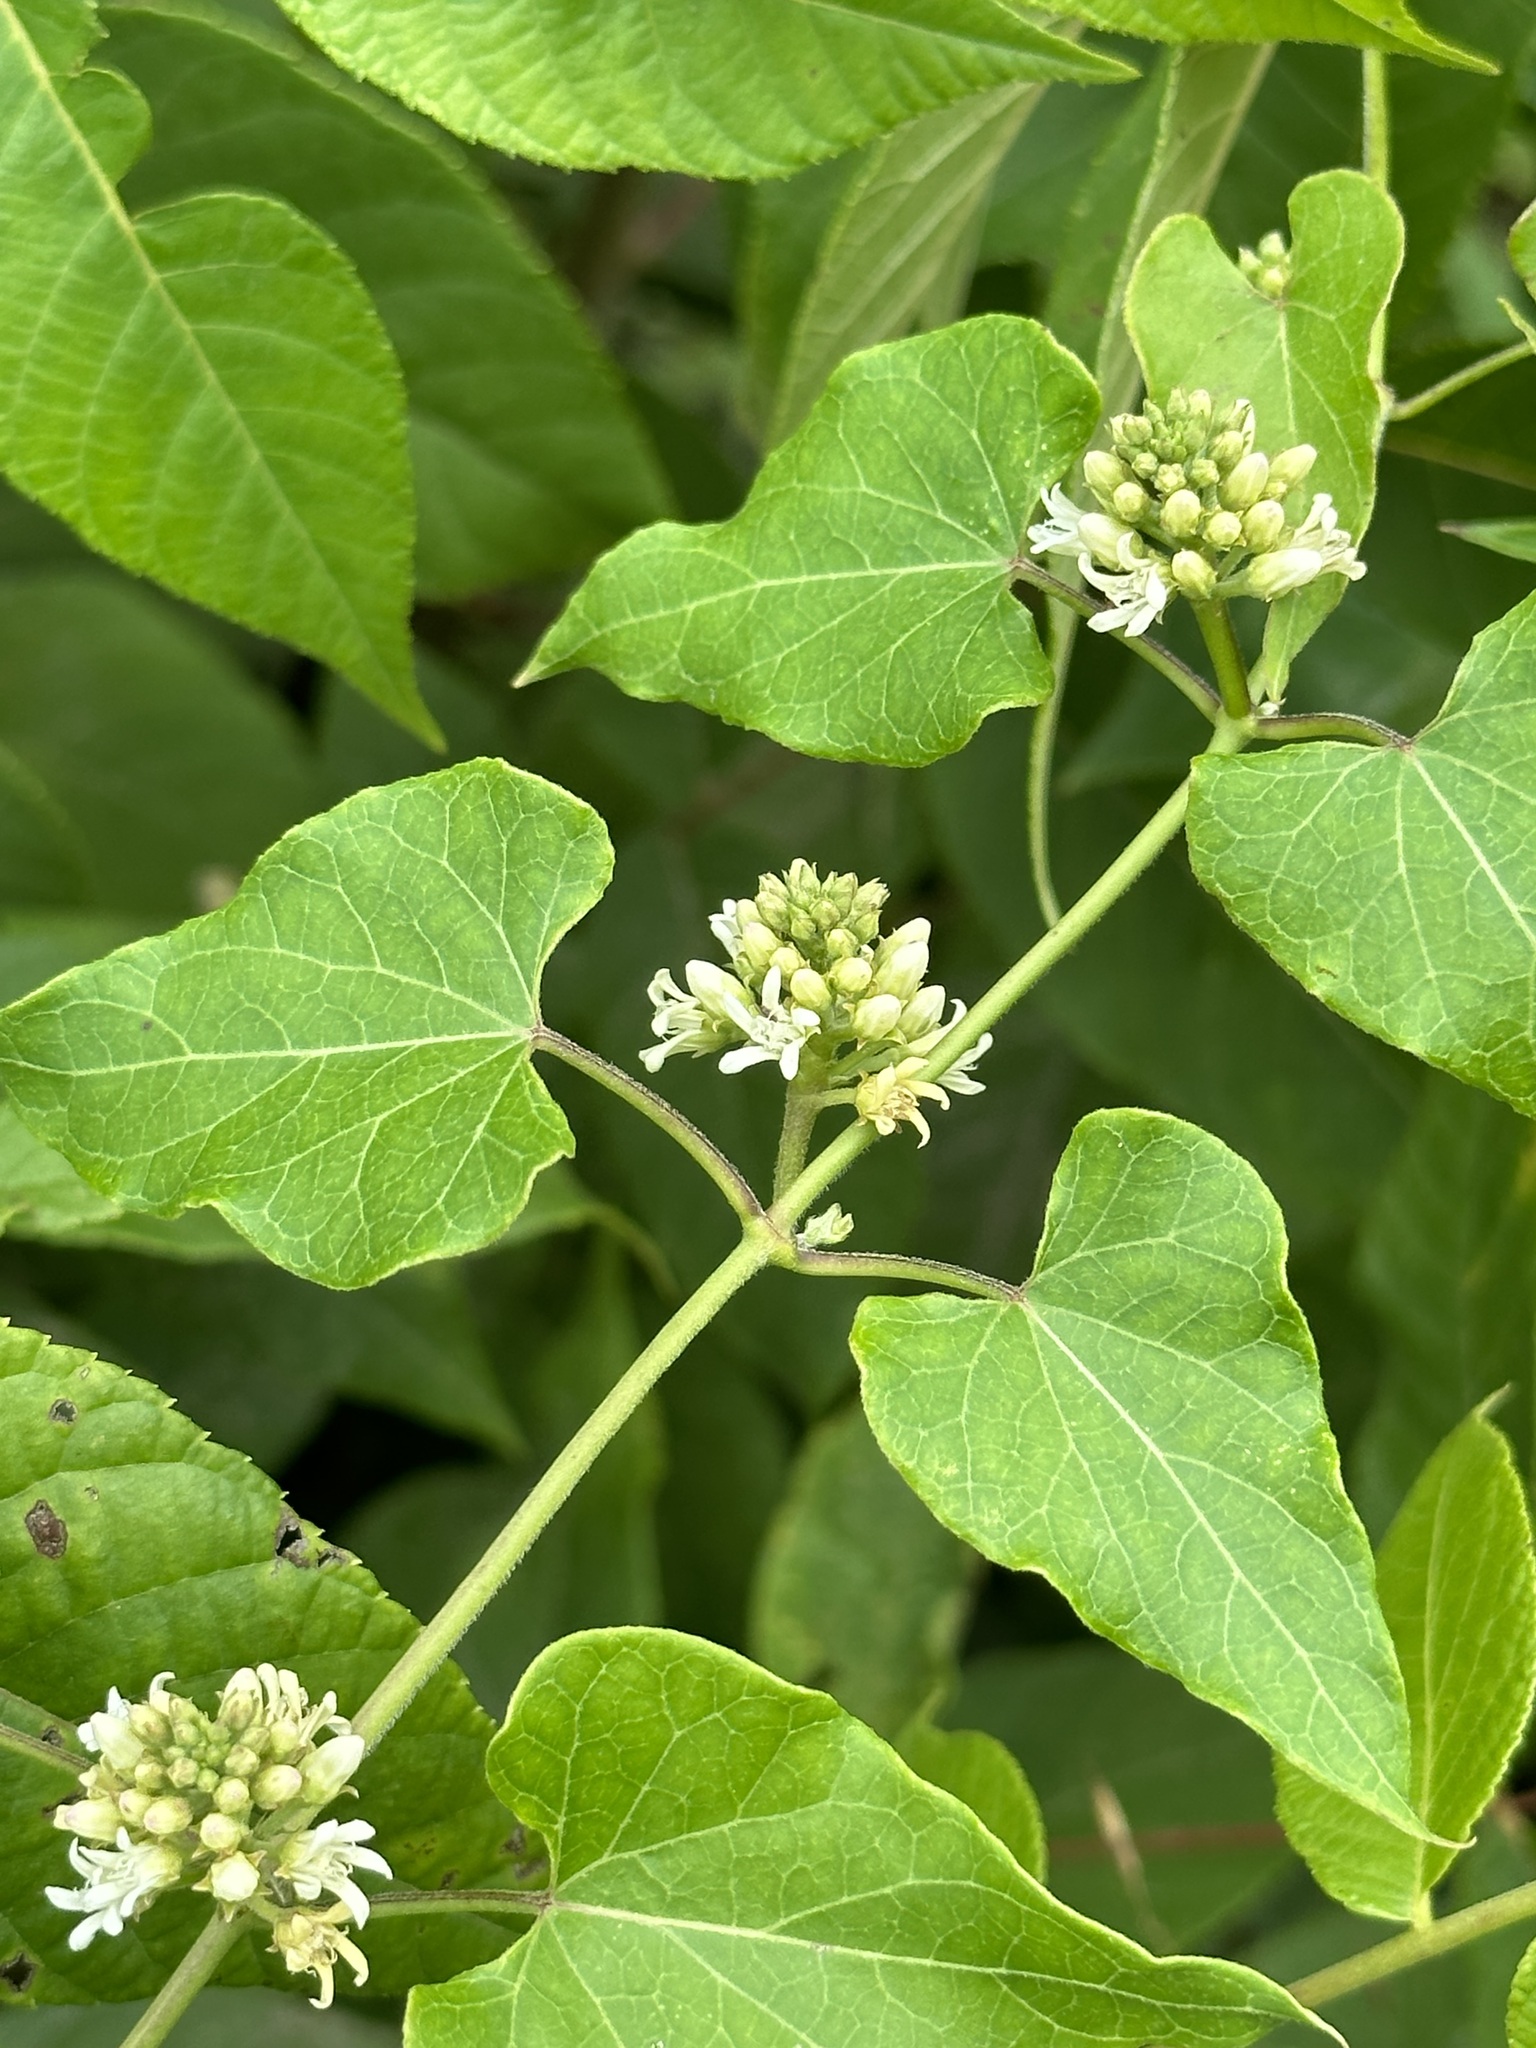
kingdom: Plantae
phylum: Tracheophyta
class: Magnoliopsida
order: Gentianales
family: Apocynaceae
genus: Cynanchum
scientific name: Cynanchum laeve
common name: Sandvine
